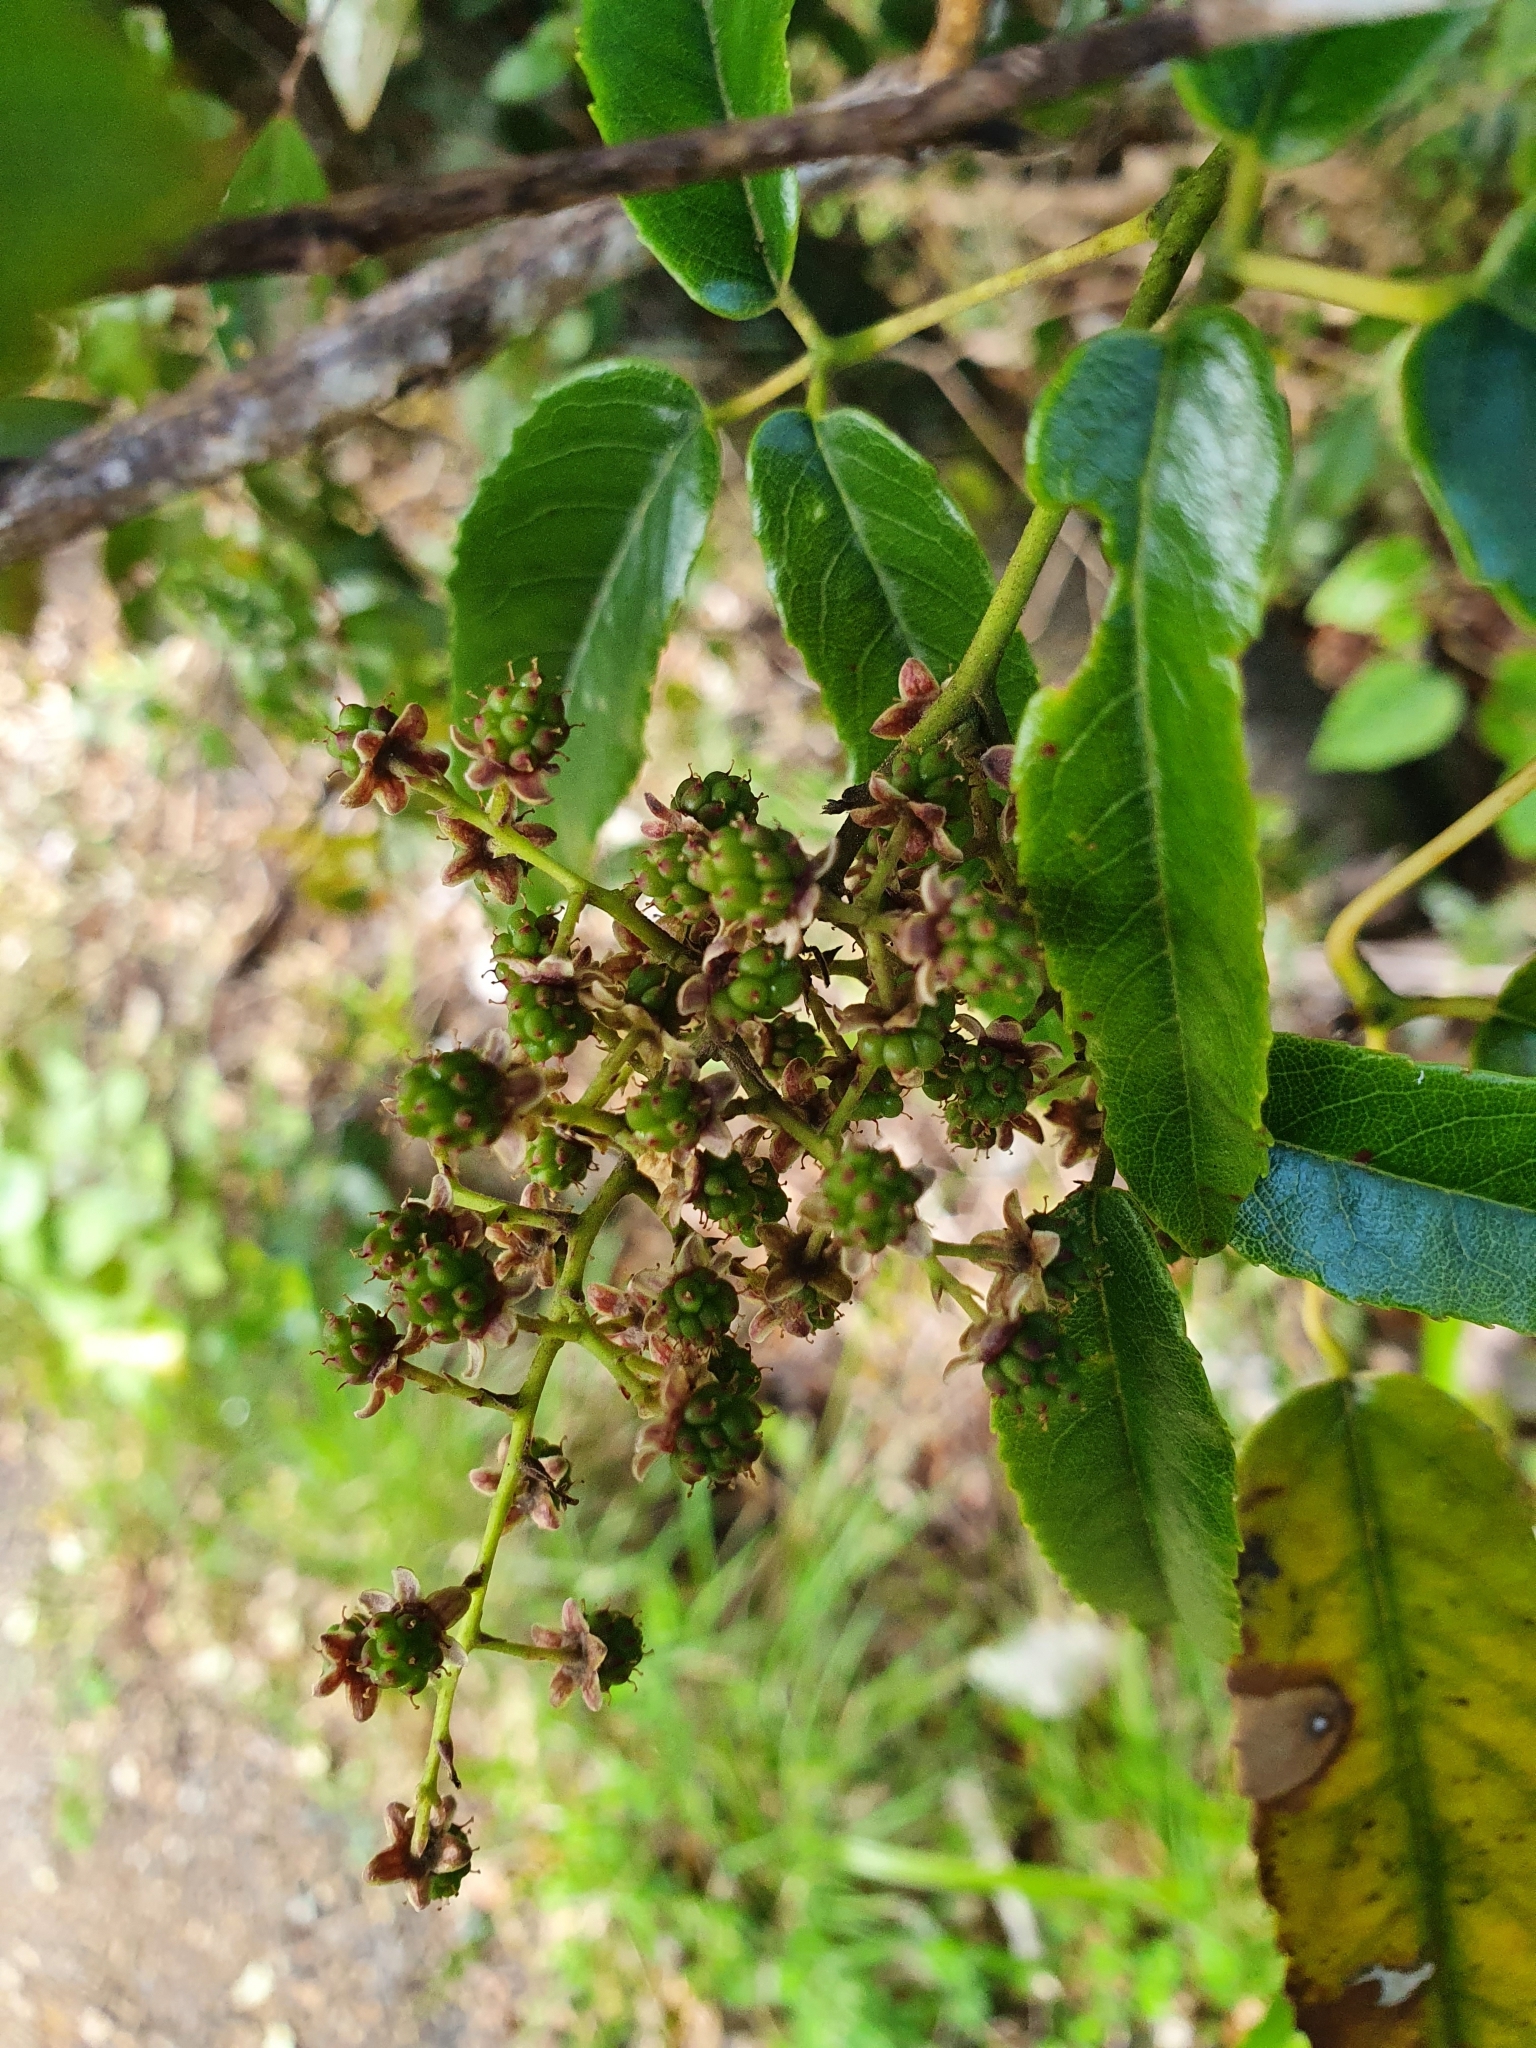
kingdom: Plantae
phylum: Tracheophyta
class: Magnoliopsida
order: Rosales
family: Rosaceae
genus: Rubus
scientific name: Rubus cissoides
